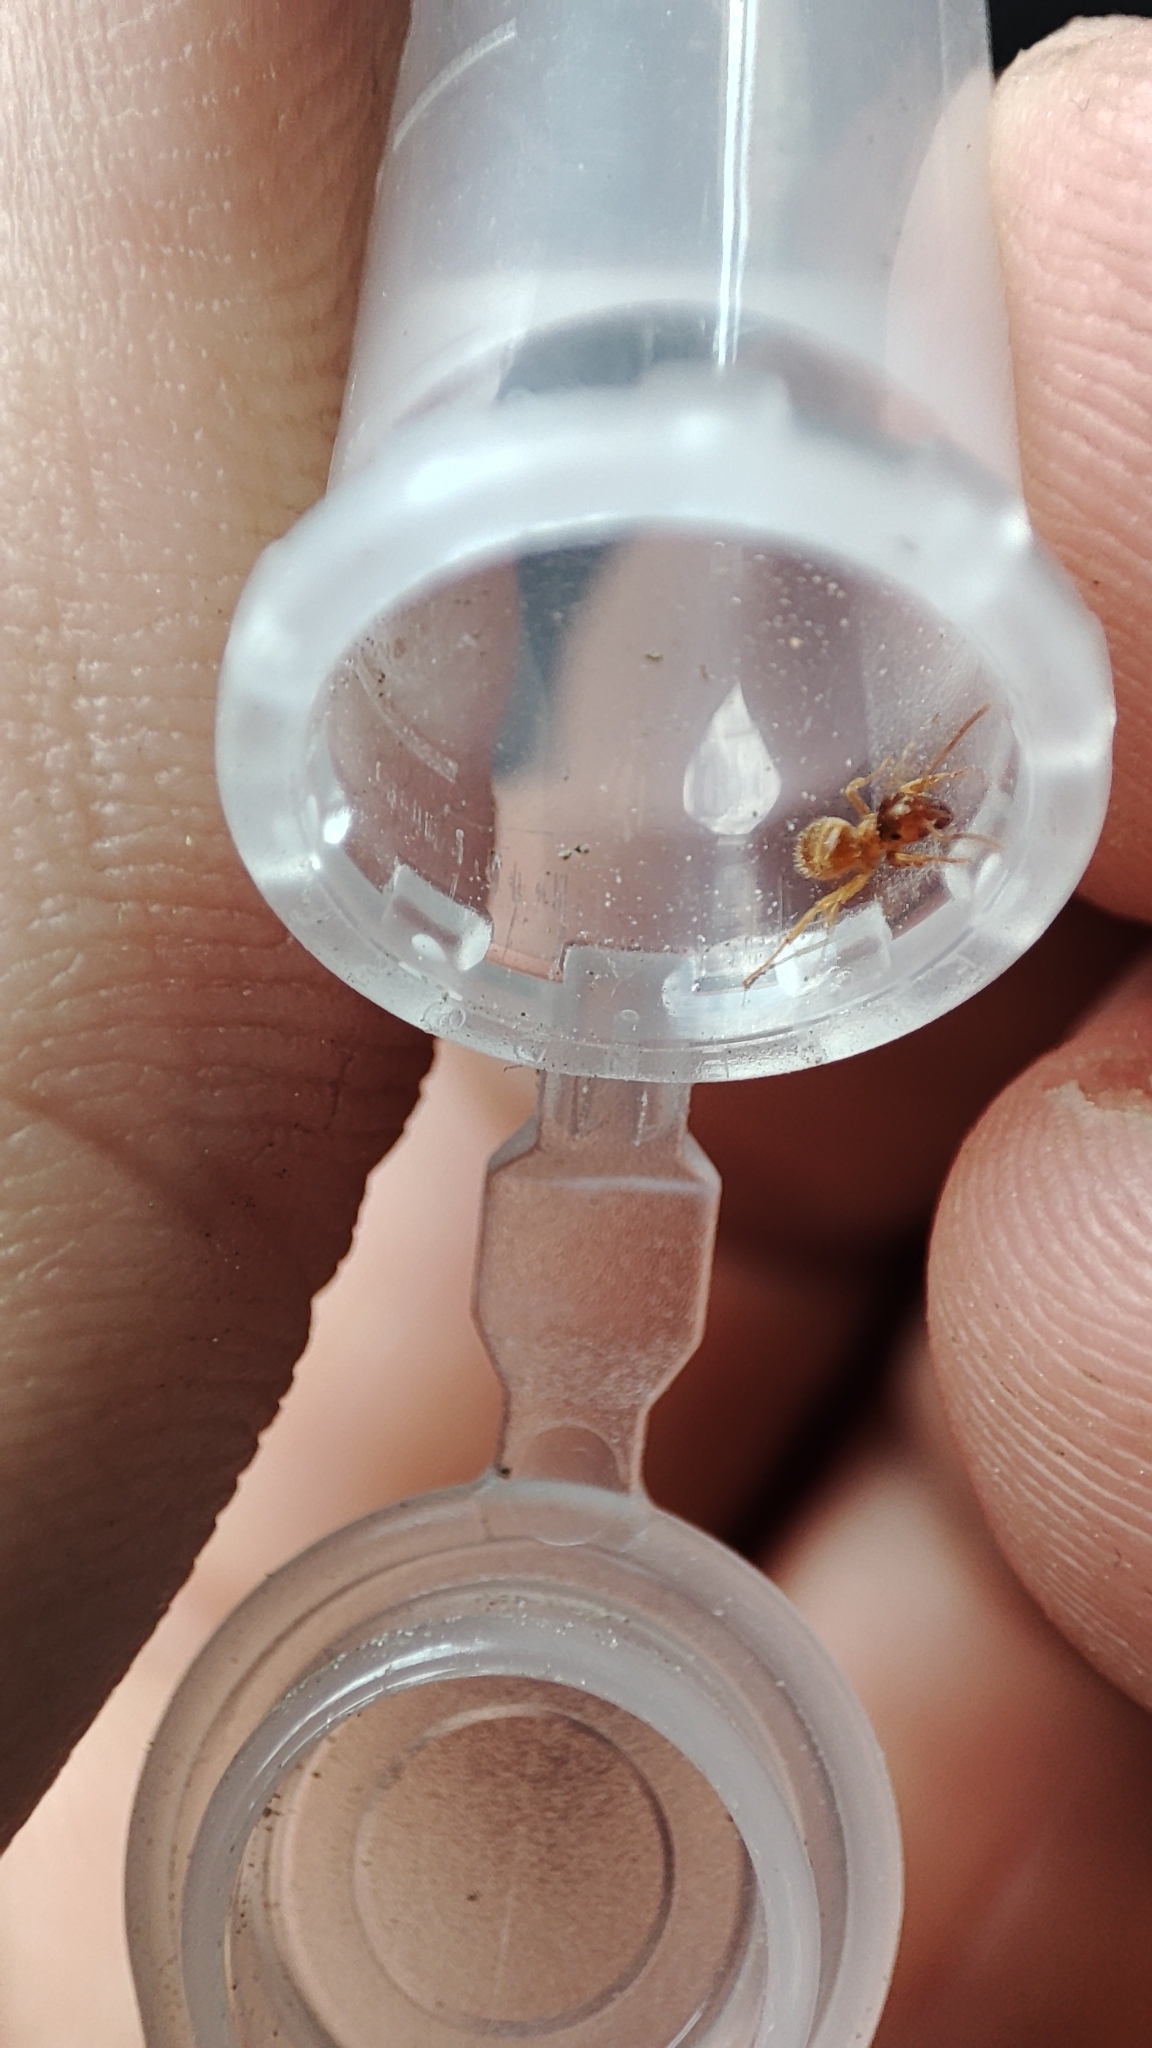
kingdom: Animalia
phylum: Arthropoda
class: Insecta
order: Hymenoptera
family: Formicidae
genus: Lasius
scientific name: Lasius flavus
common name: Blond field ant
